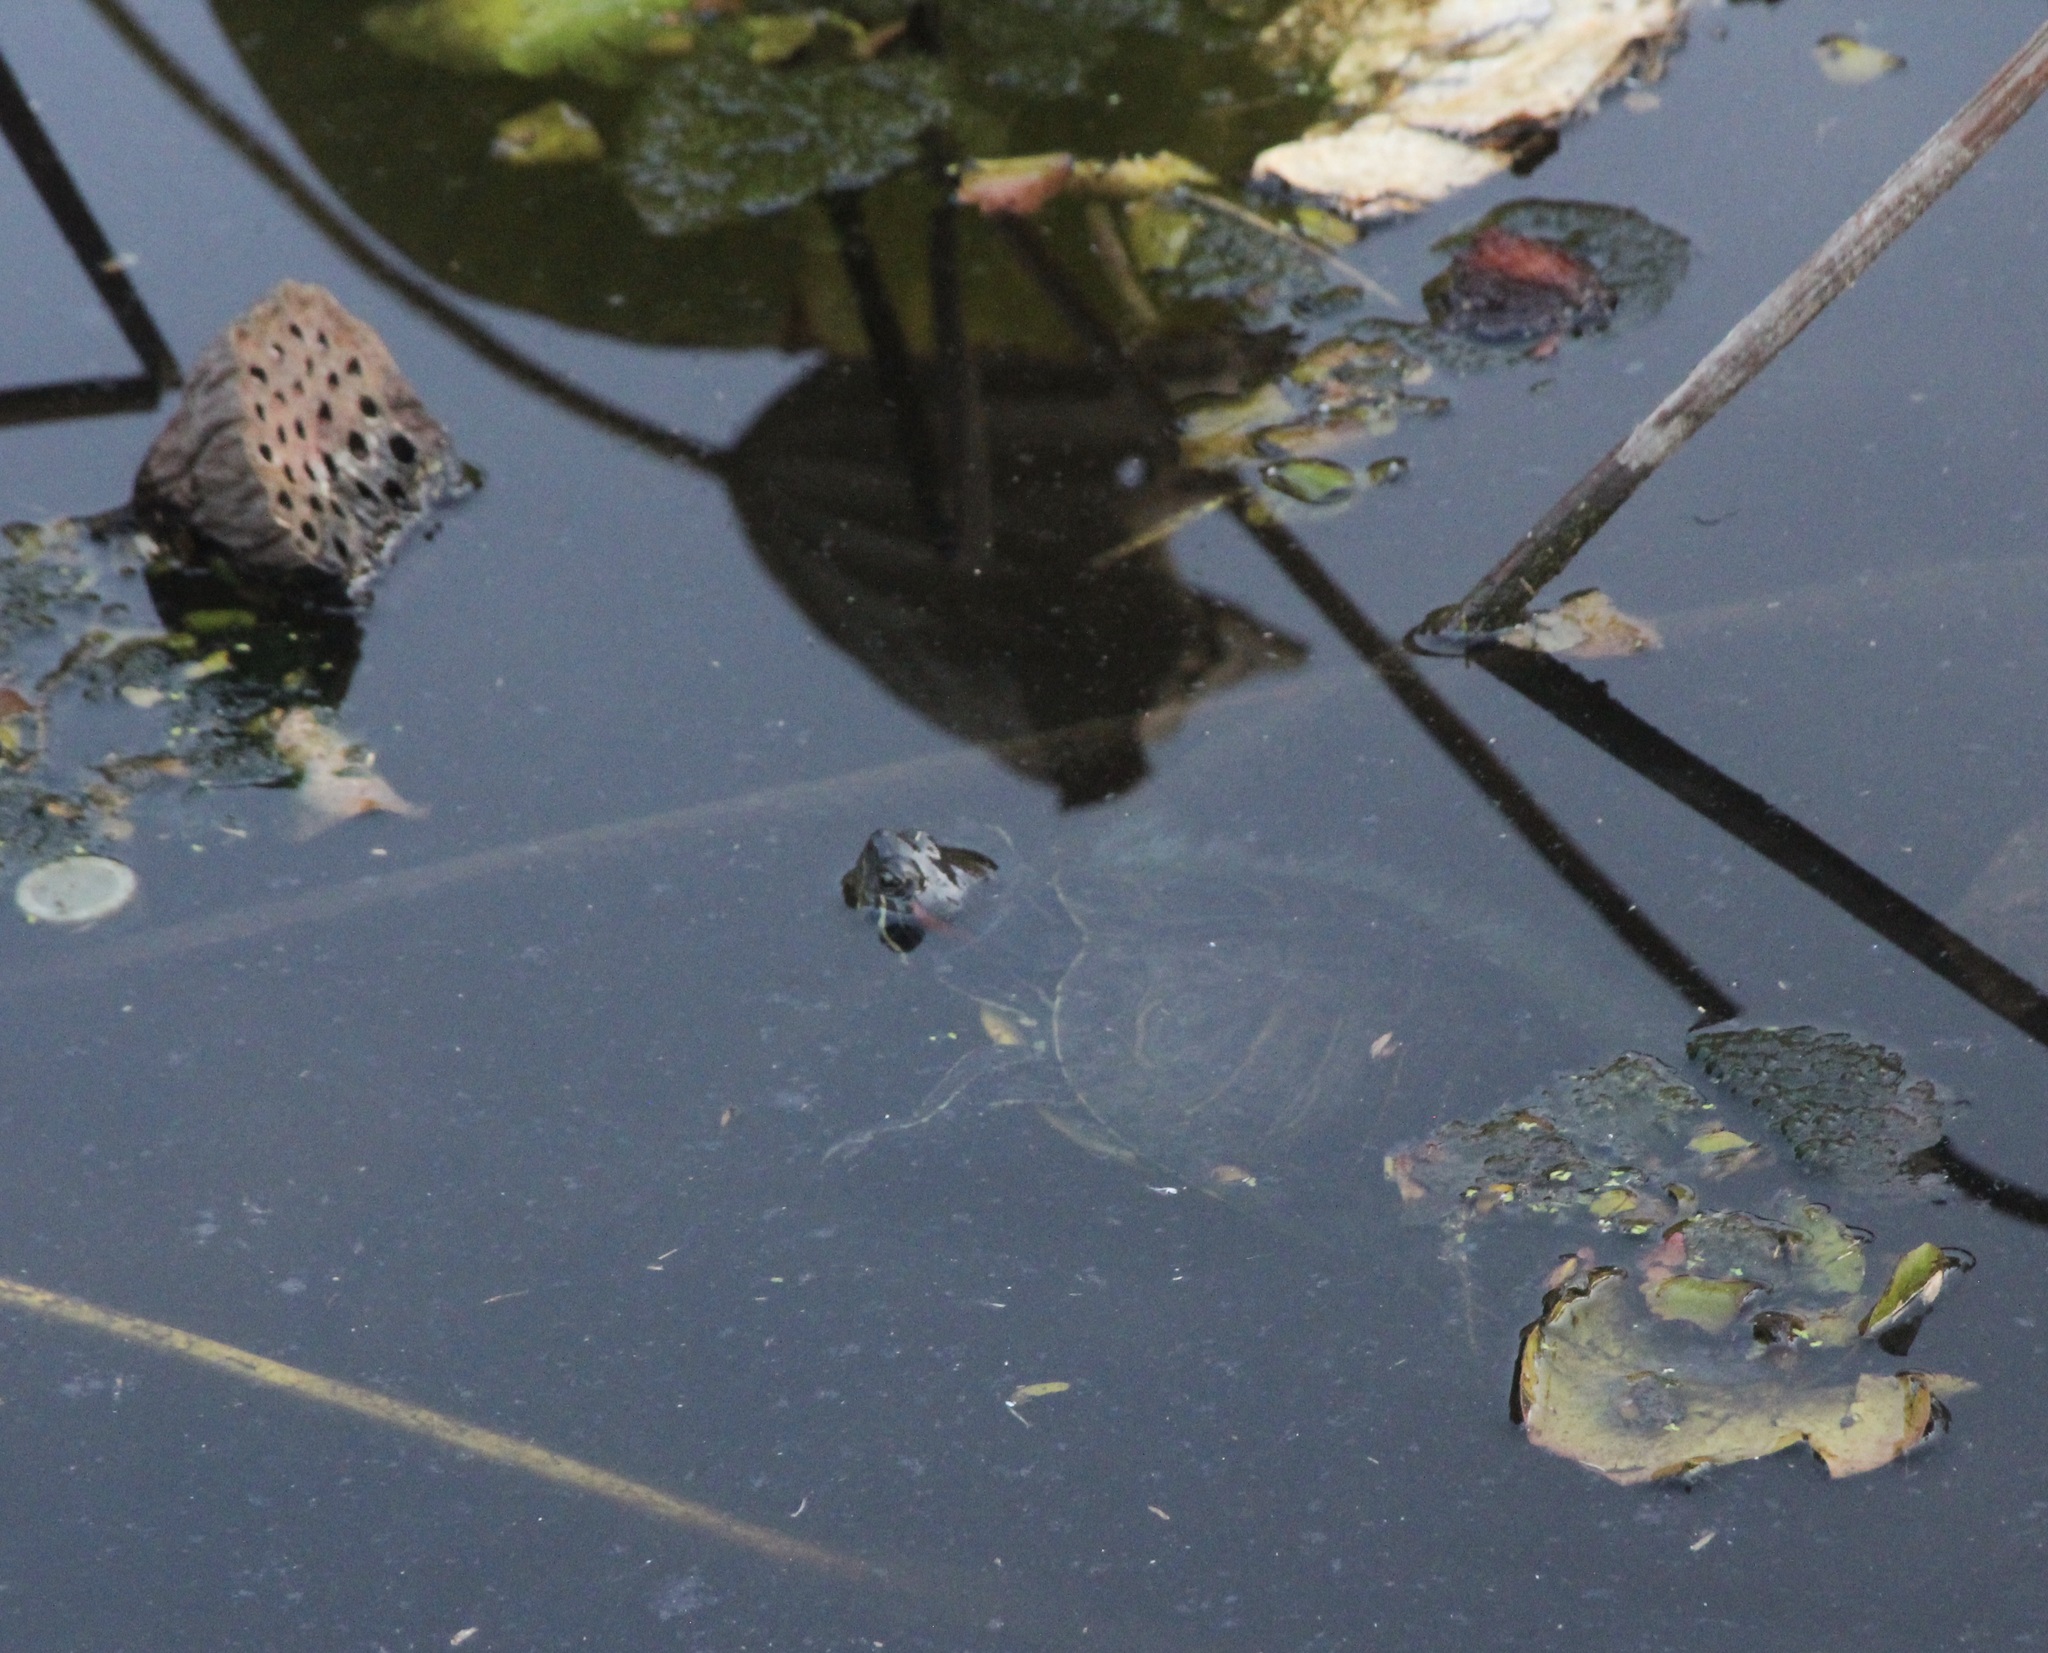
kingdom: Animalia
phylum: Chordata
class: Testudines
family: Emydidae
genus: Trachemys
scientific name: Trachemys scripta
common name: Slider
